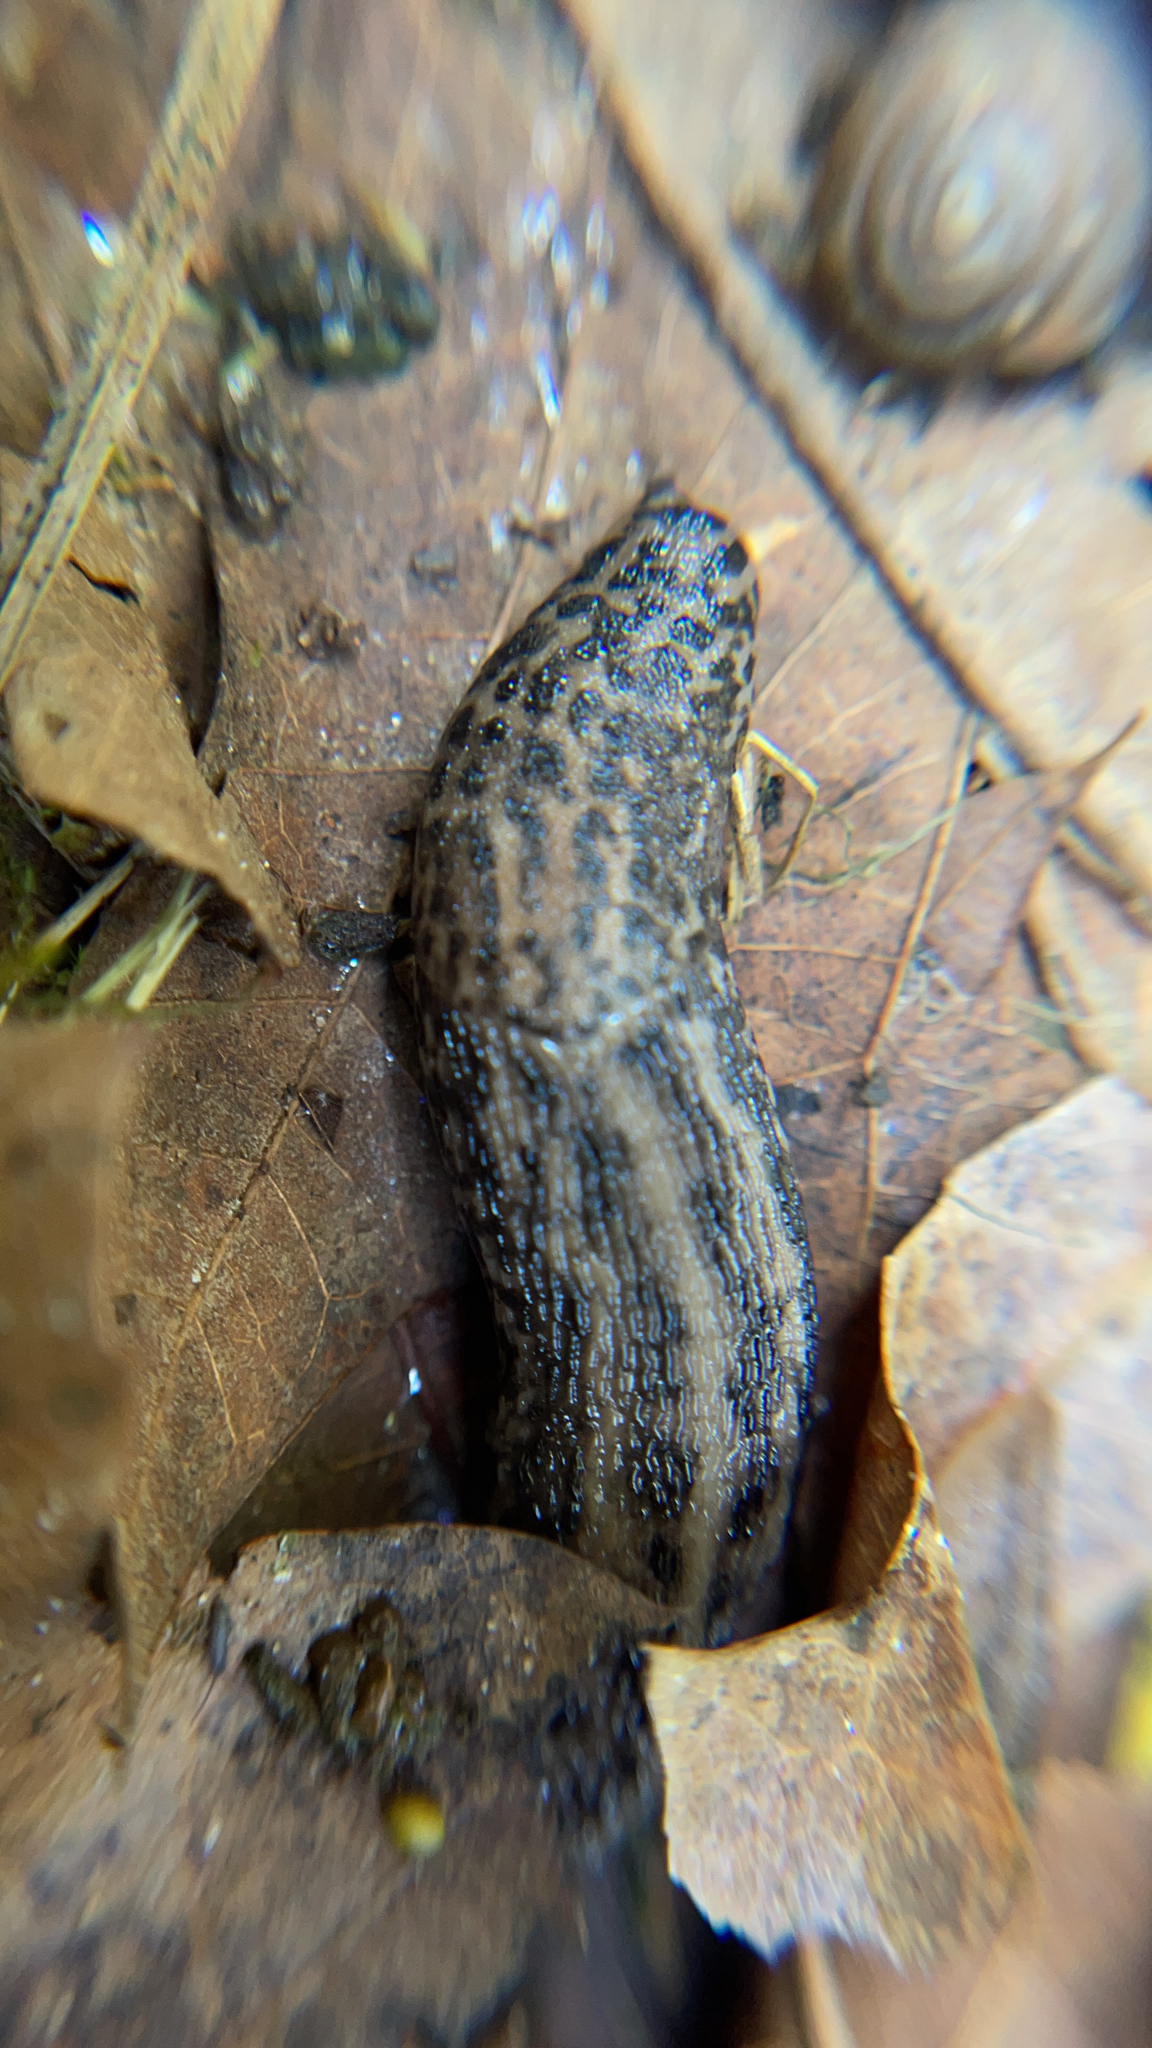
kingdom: Animalia
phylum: Mollusca
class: Gastropoda
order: Stylommatophora
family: Limacidae
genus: Limax
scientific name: Limax maximus
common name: Great grey slug
